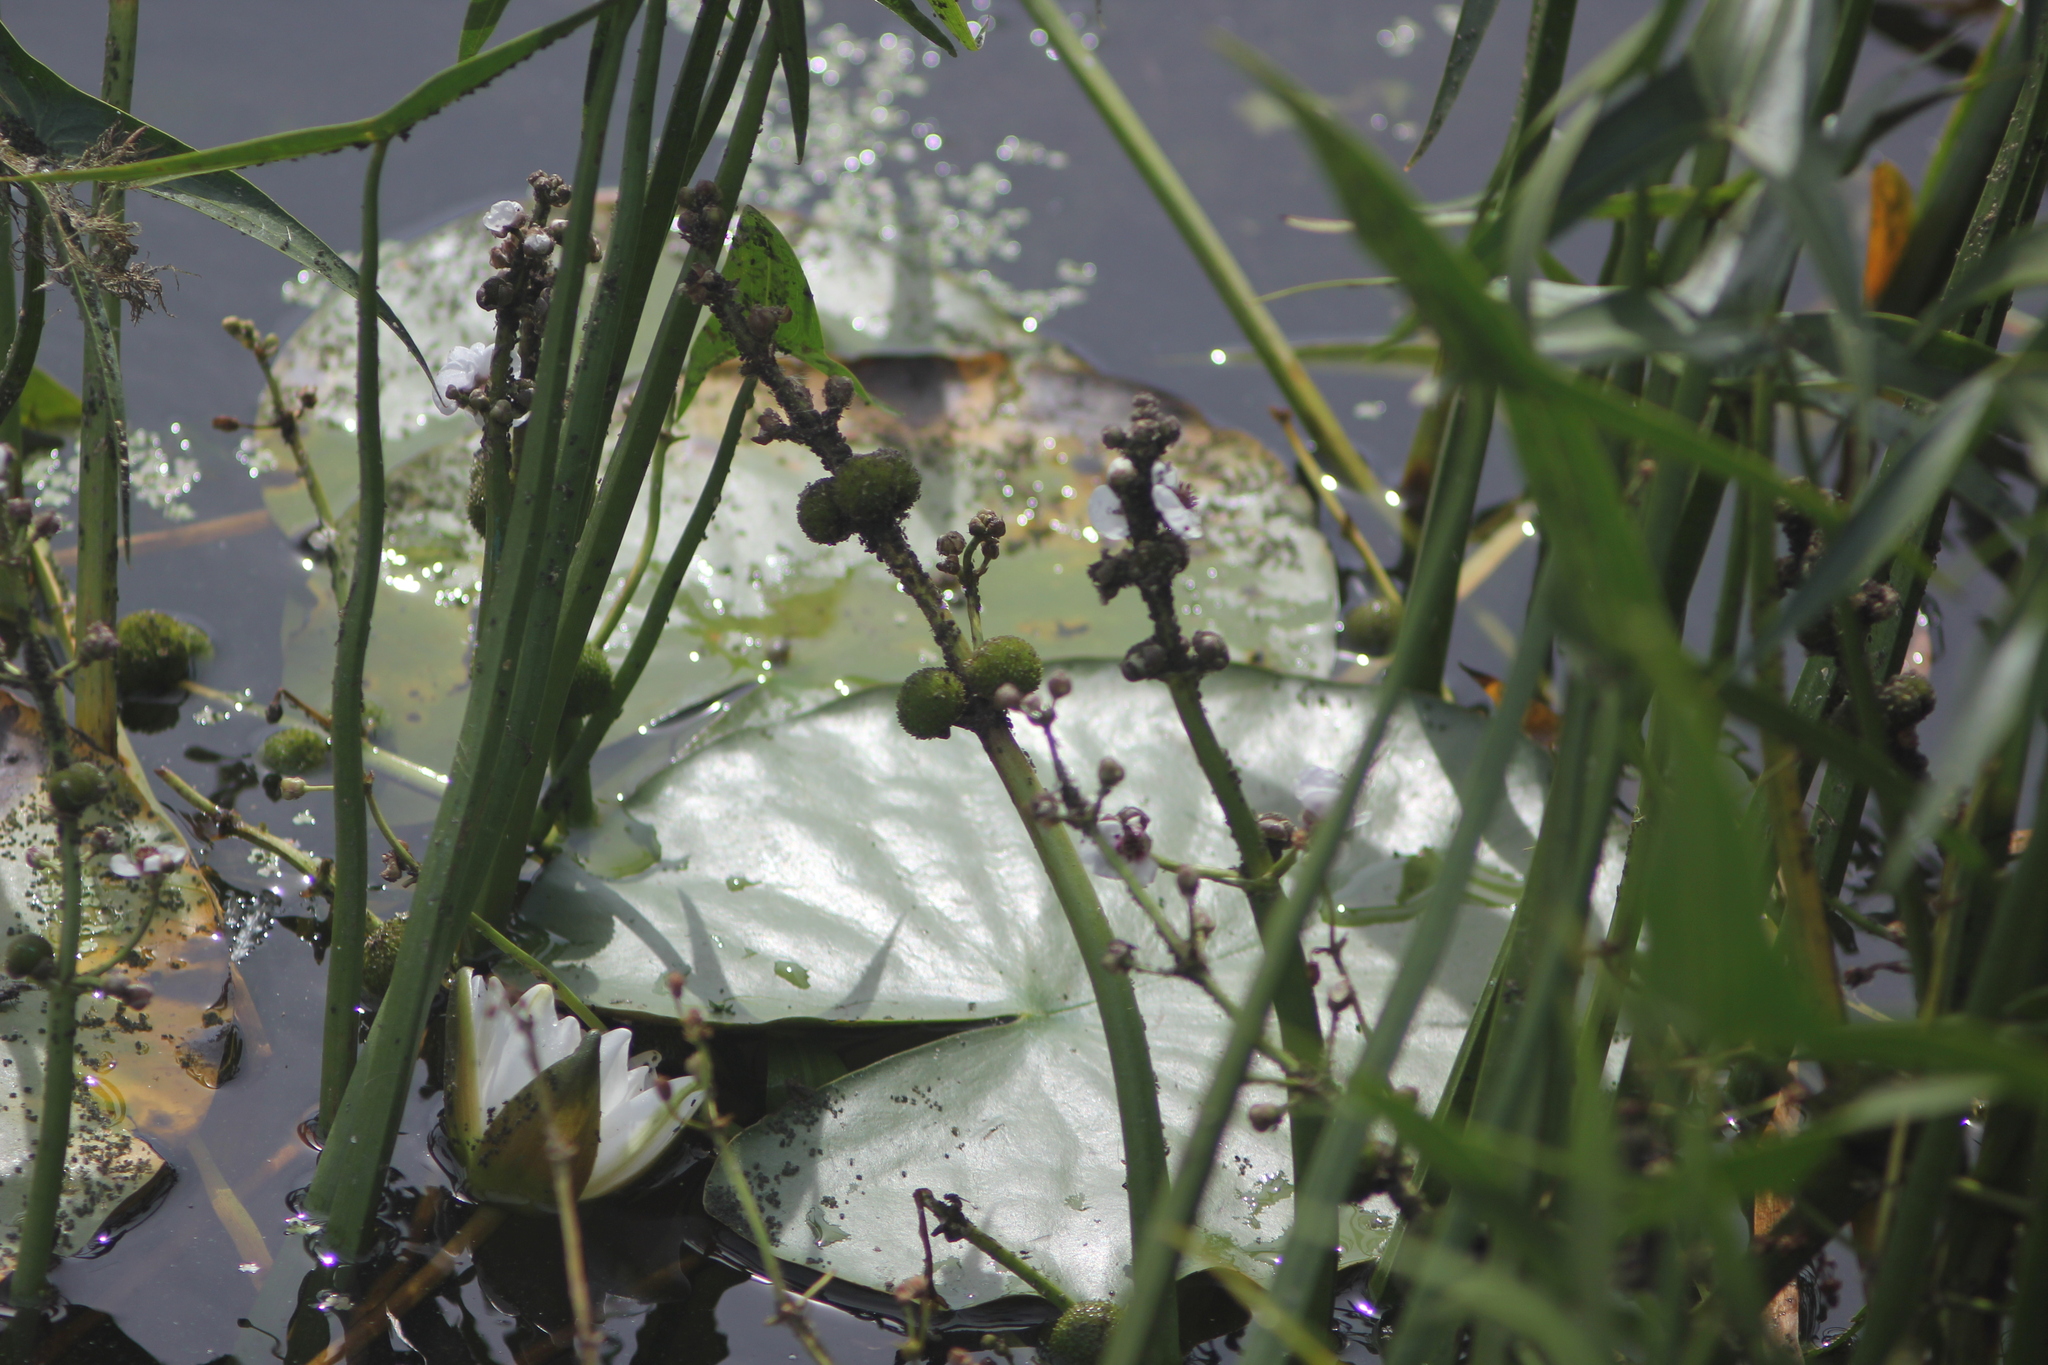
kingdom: Plantae
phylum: Tracheophyta
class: Liliopsida
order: Alismatales
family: Alismataceae
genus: Sagittaria
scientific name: Sagittaria sagittifolia
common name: Arrowhead
